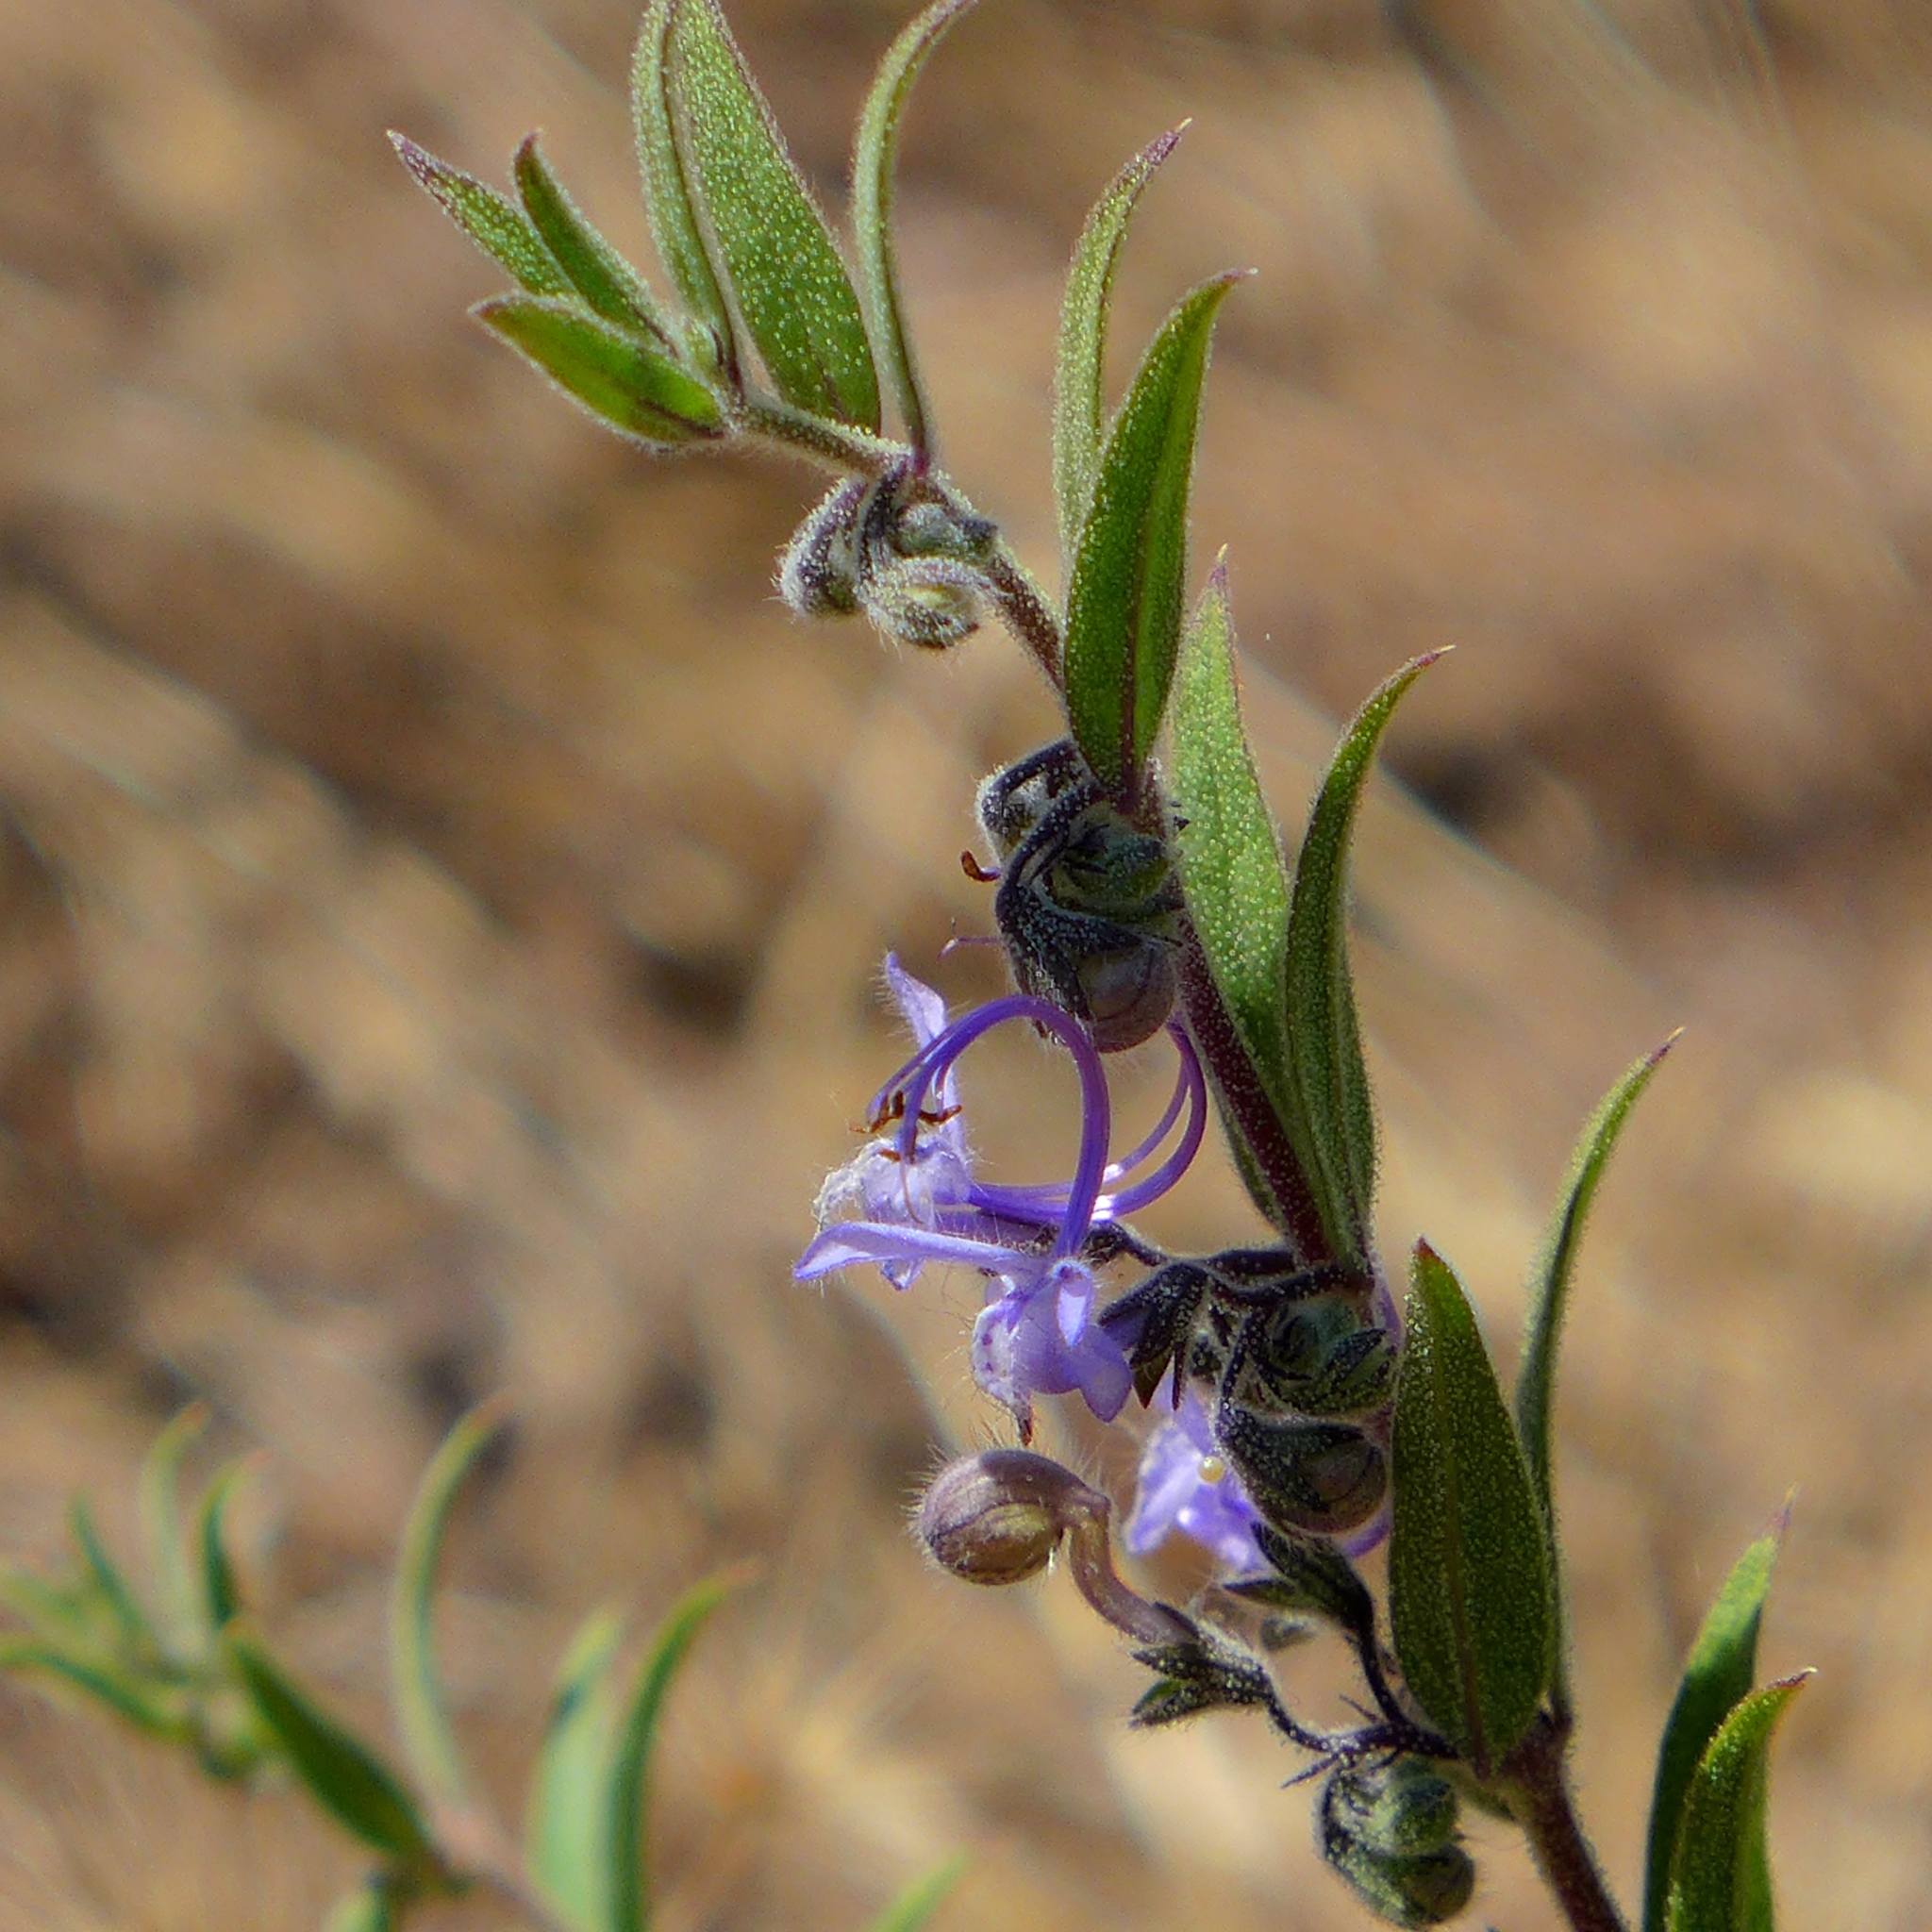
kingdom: Plantae
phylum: Tracheophyta
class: Magnoliopsida
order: Lamiales
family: Lamiaceae
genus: Trichostema
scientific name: Trichostema lanceolatum
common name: Vinegar-weed
